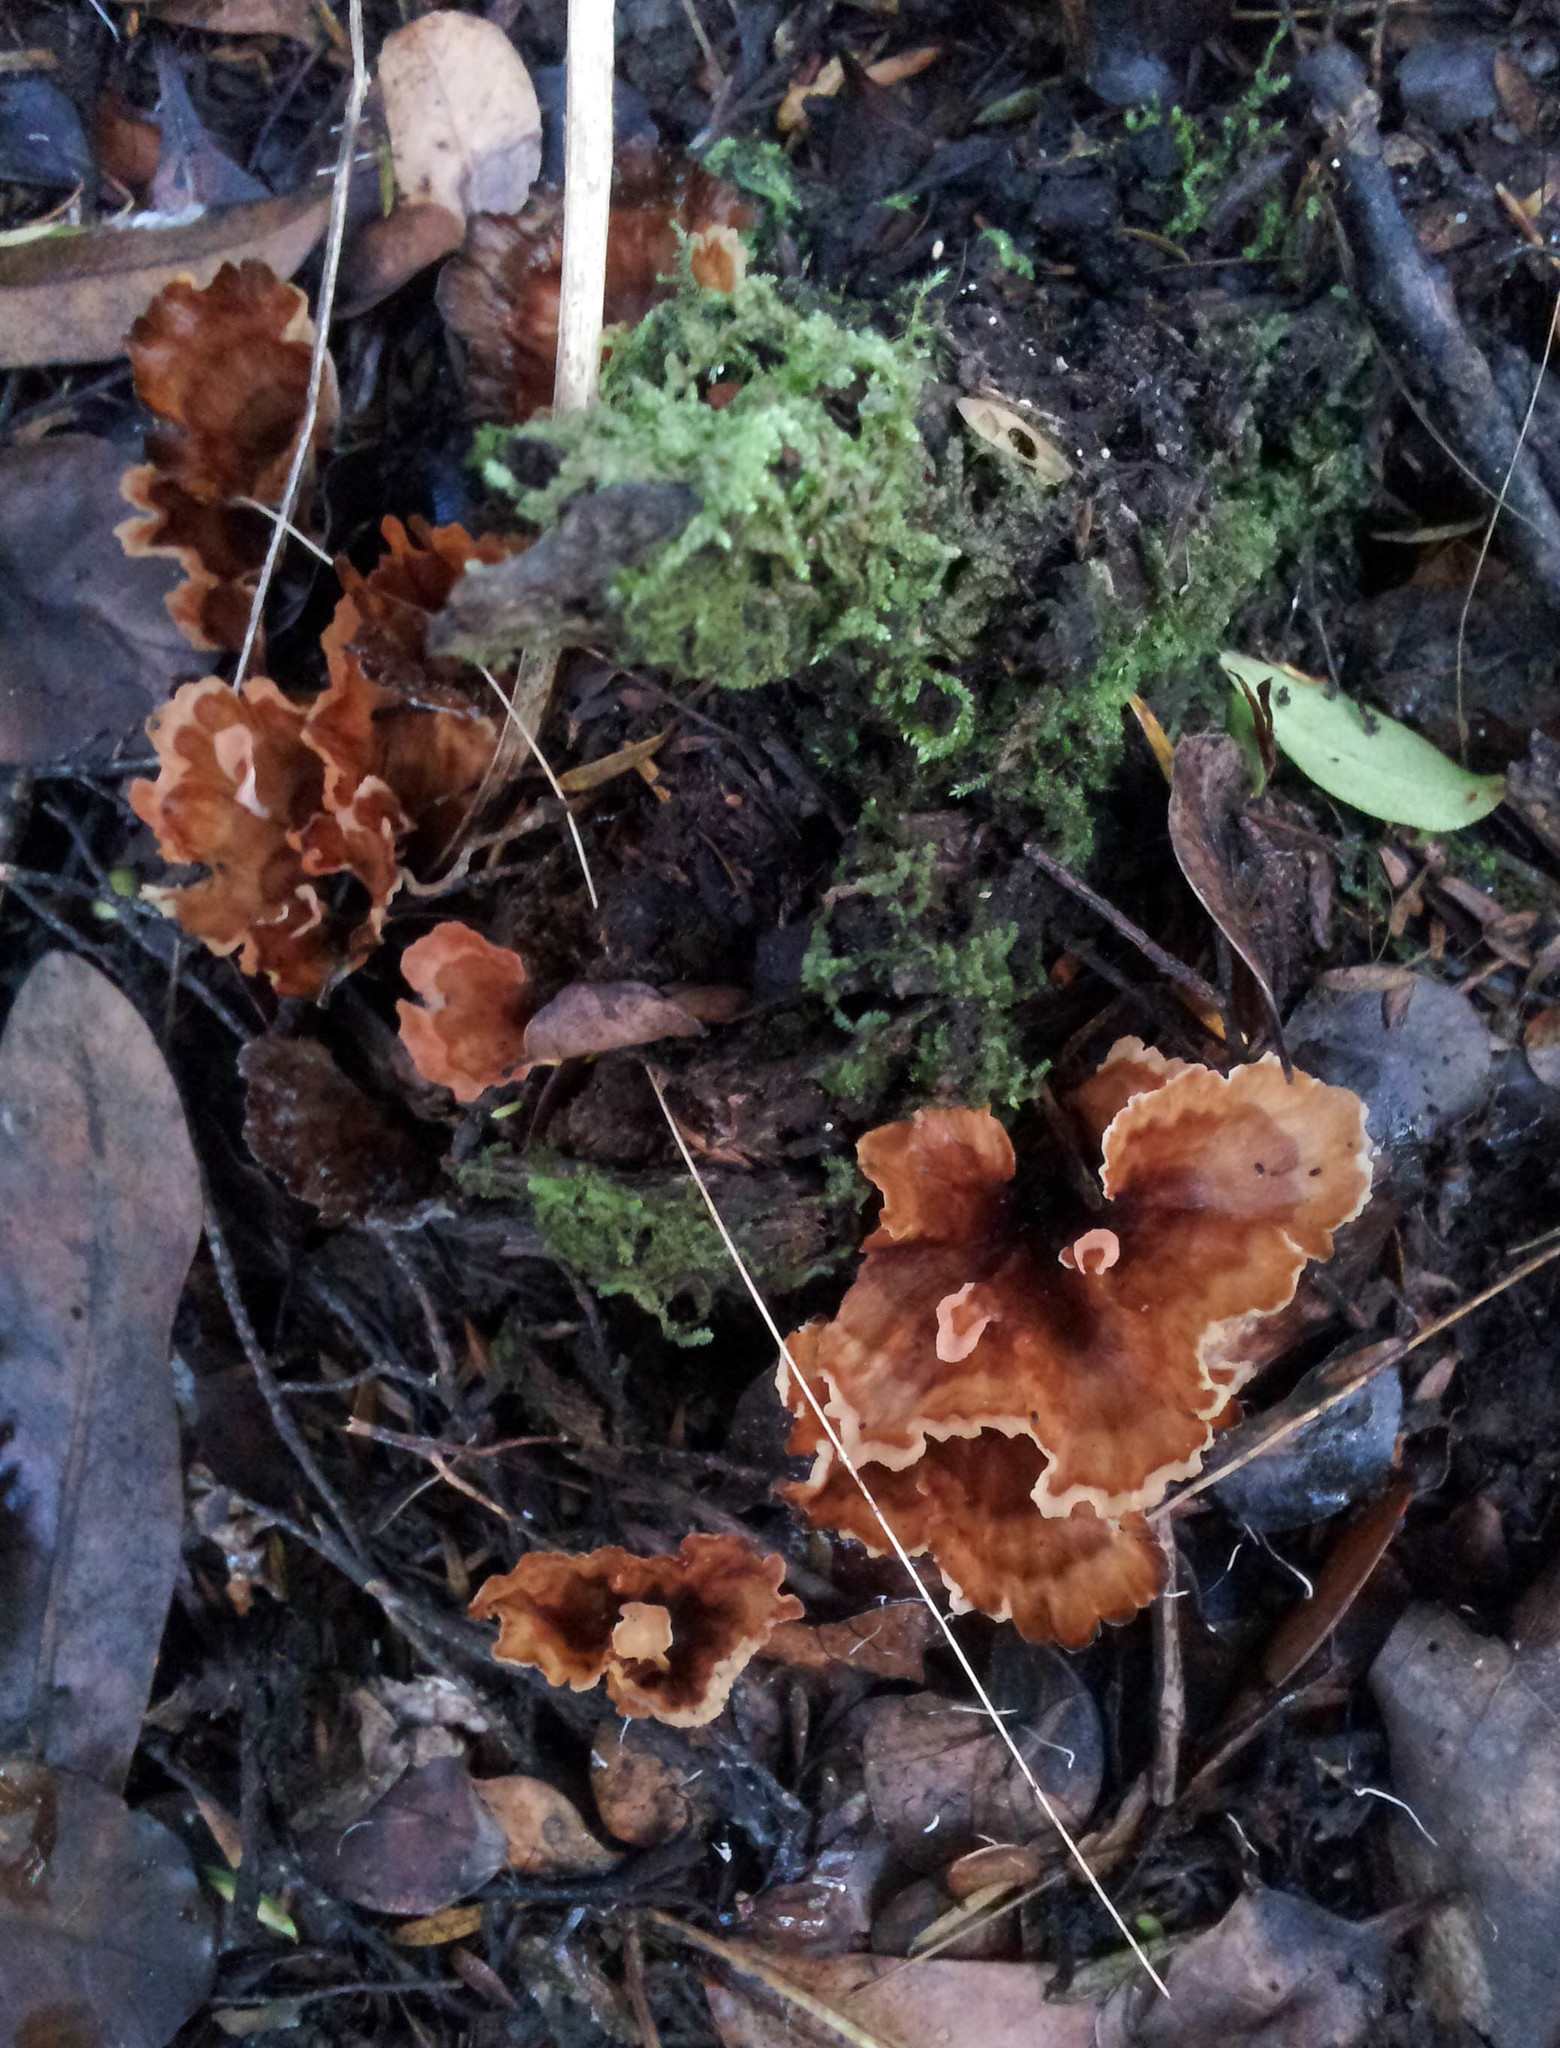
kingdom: Fungi
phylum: Basidiomycota
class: Agaricomycetes
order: Polyporales
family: Podoscyphaceae
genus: Podoscypha
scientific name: Podoscypha petalodes
